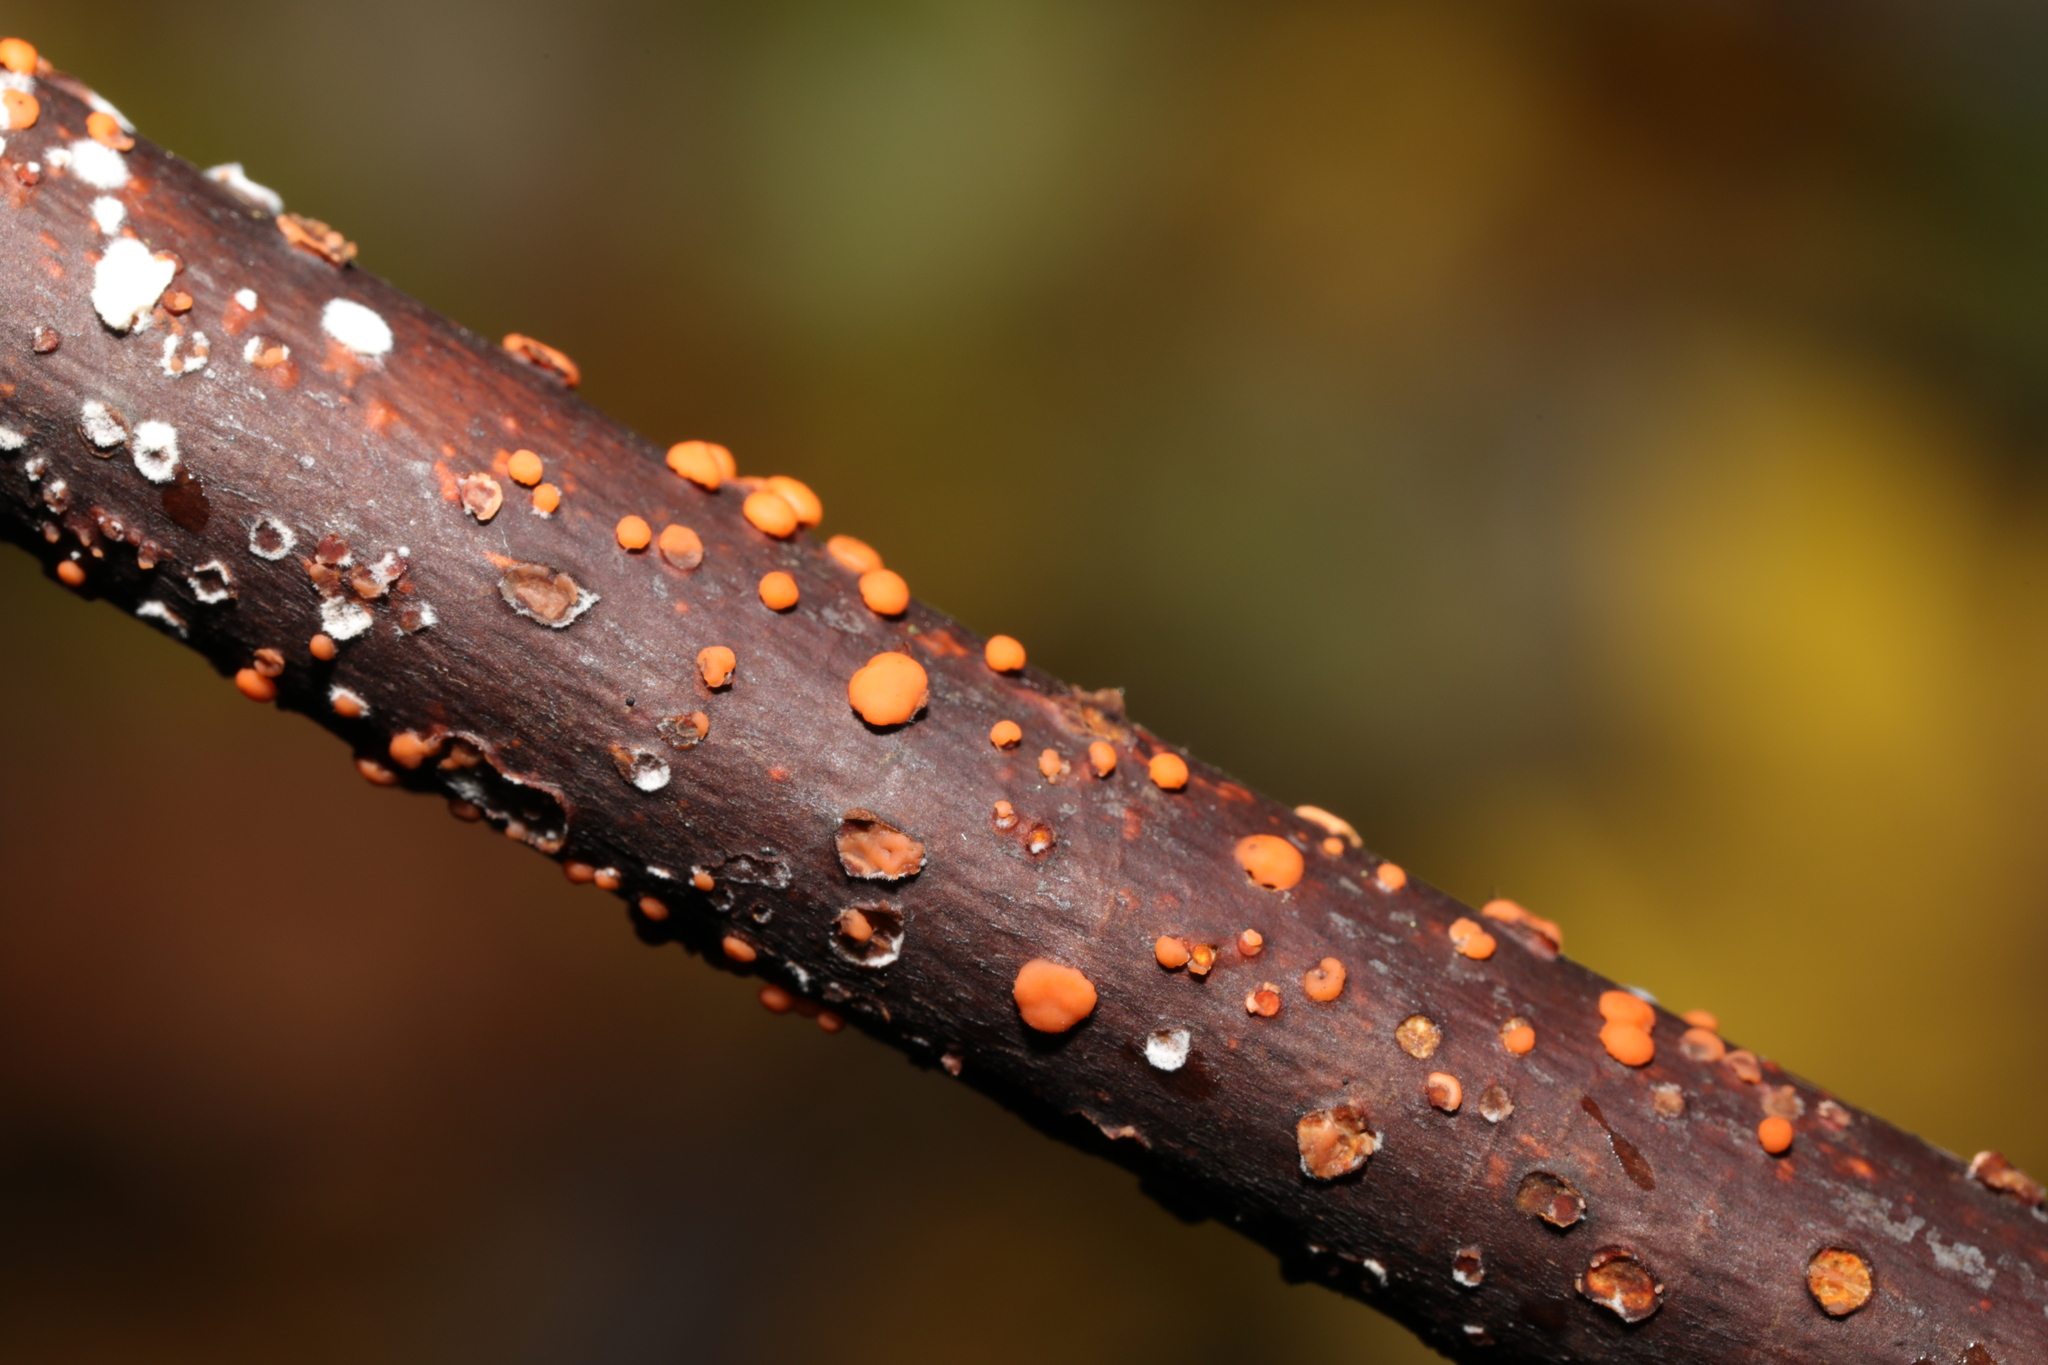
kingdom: Fungi
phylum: Ascomycota
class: Sordariomycetes
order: Hypocreales
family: Nectriaceae
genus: Nectria
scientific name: Nectria cinnabarina
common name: Coral spot
